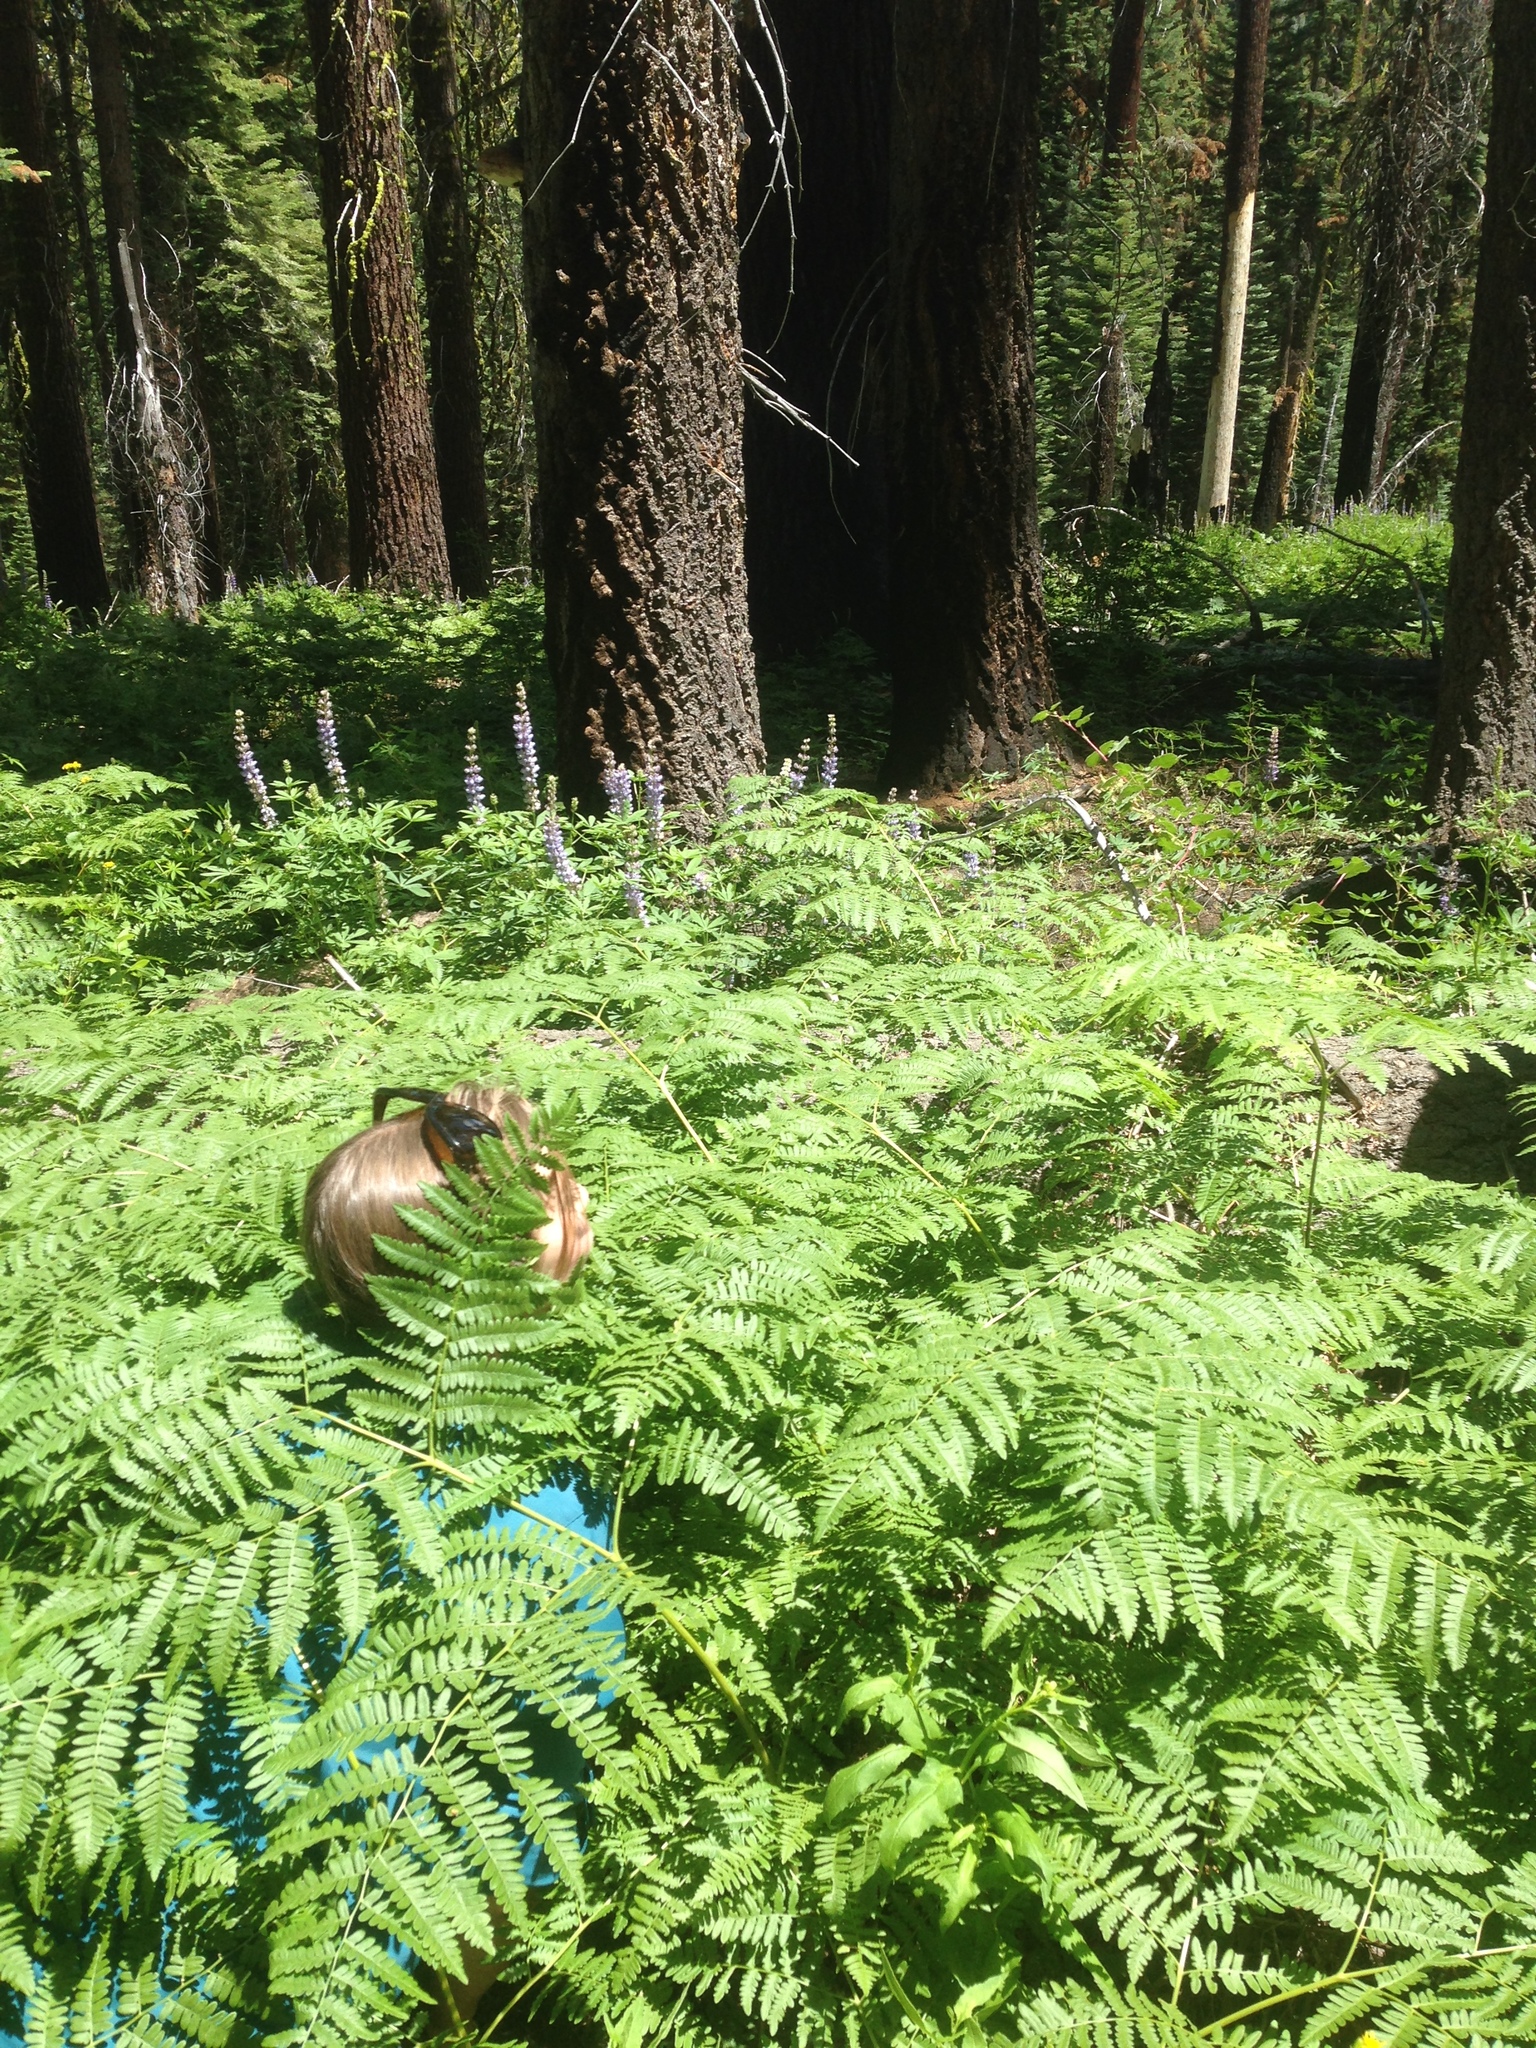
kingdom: Plantae
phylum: Tracheophyta
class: Polypodiopsida
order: Polypodiales
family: Dennstaedtiaceae
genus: Pteridium
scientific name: Pteridium aquilinum
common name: Bracken
